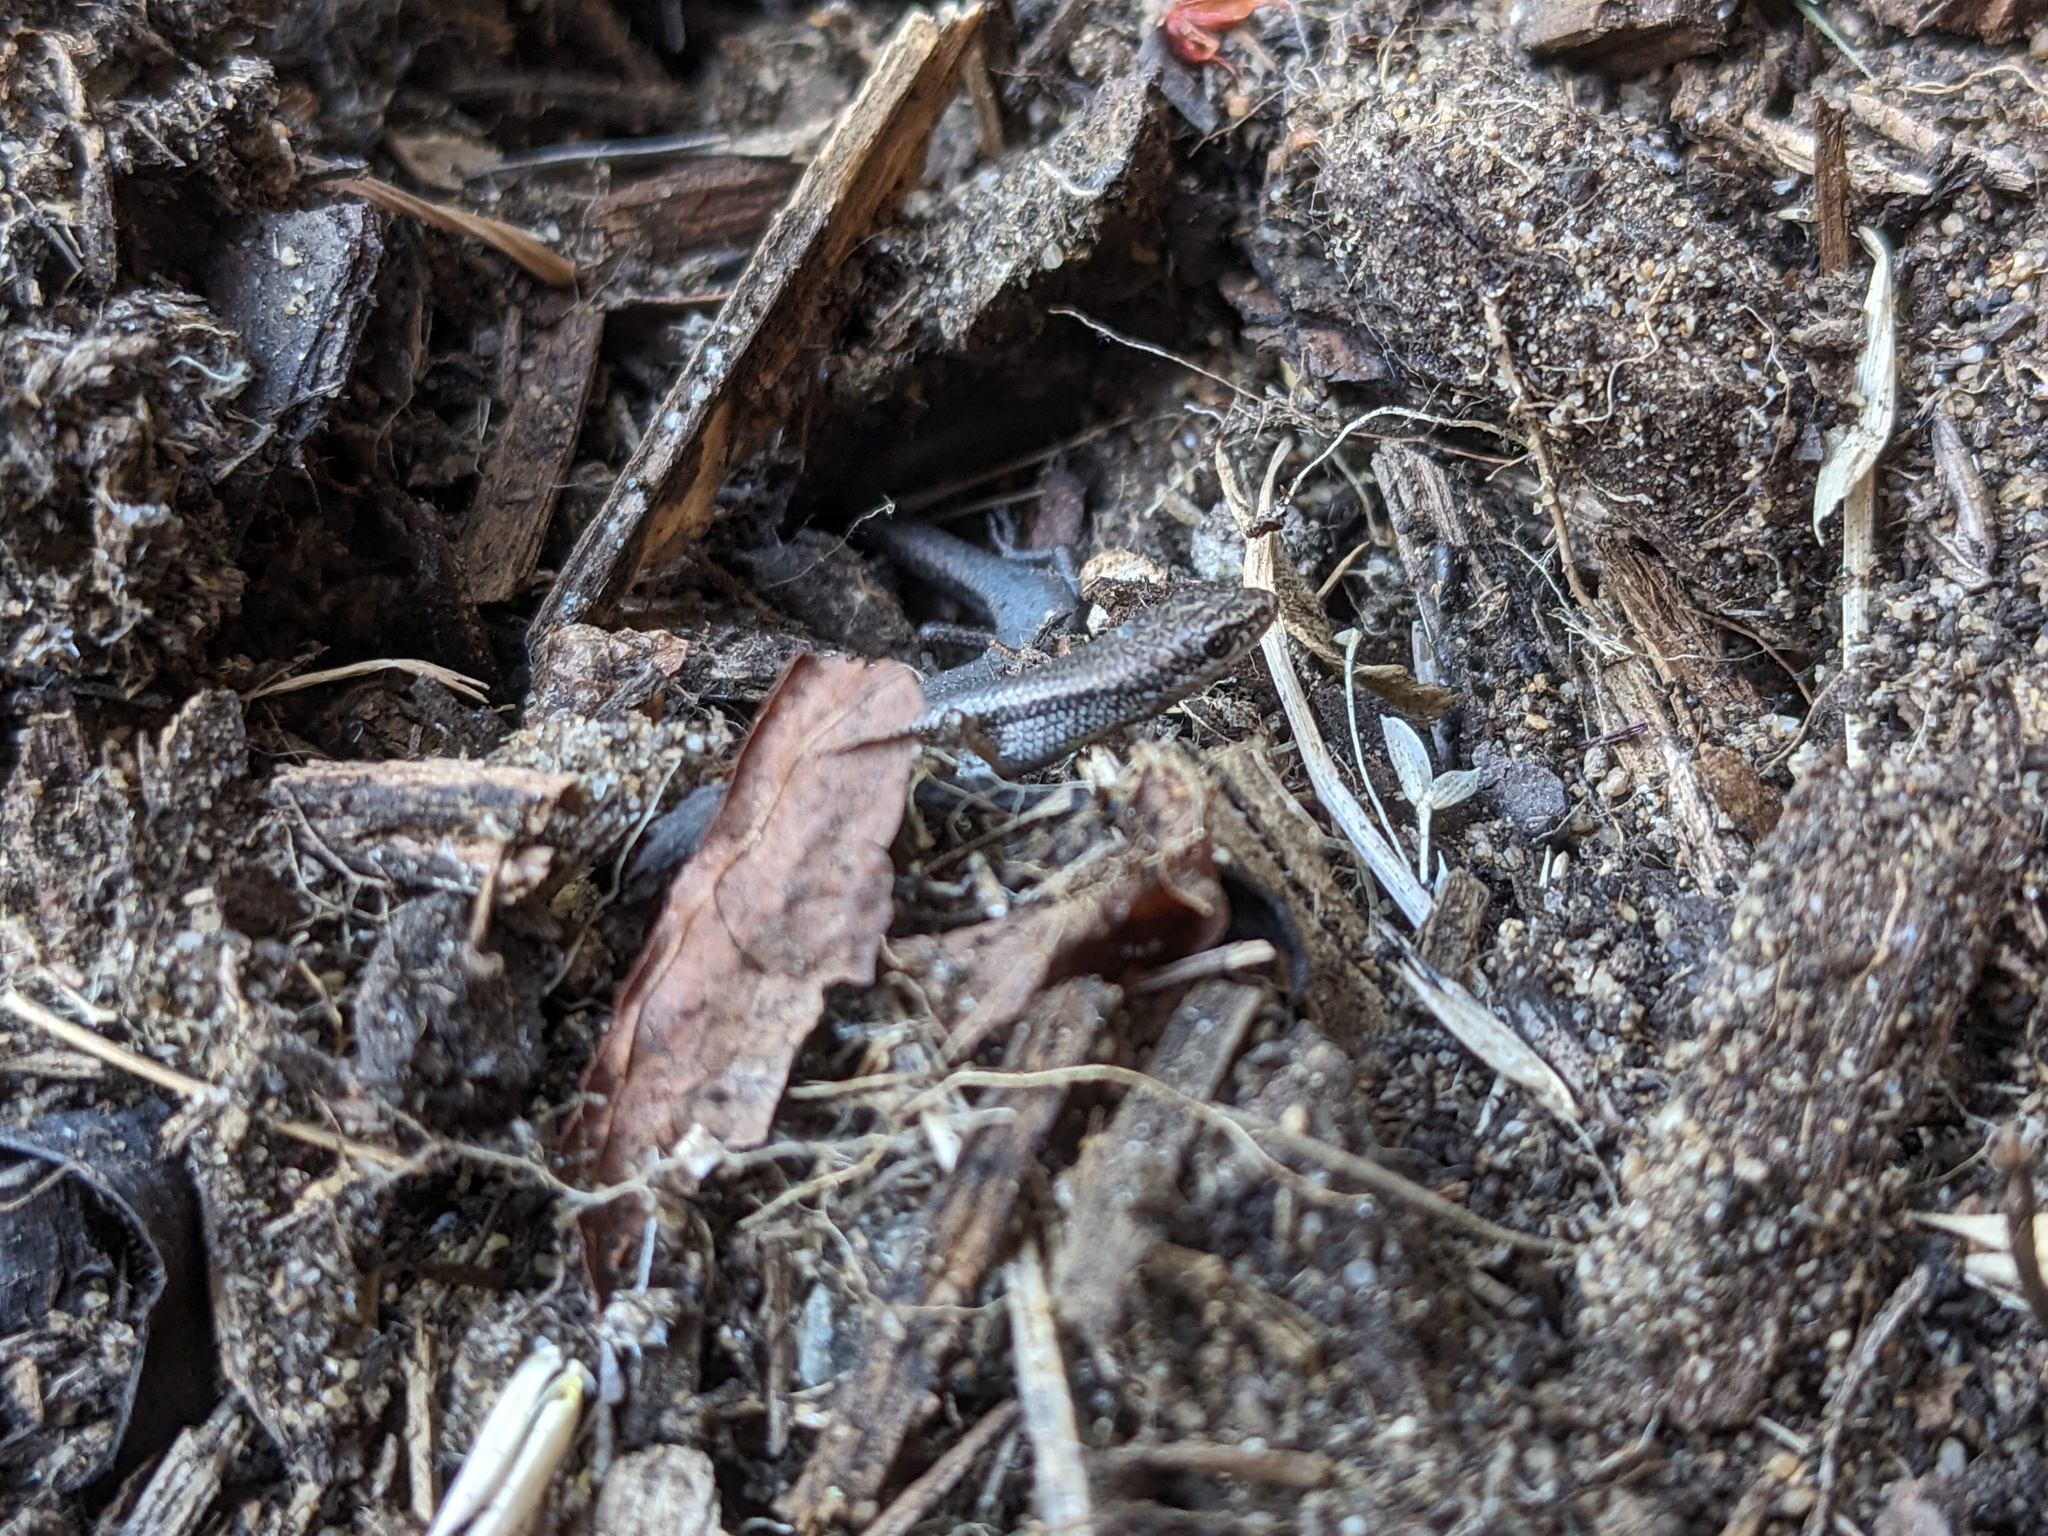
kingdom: Animalia
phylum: Chordata
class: Squamata
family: Scincidae
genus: Menetia
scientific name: Menetia greyii
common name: Common dwarf skink
